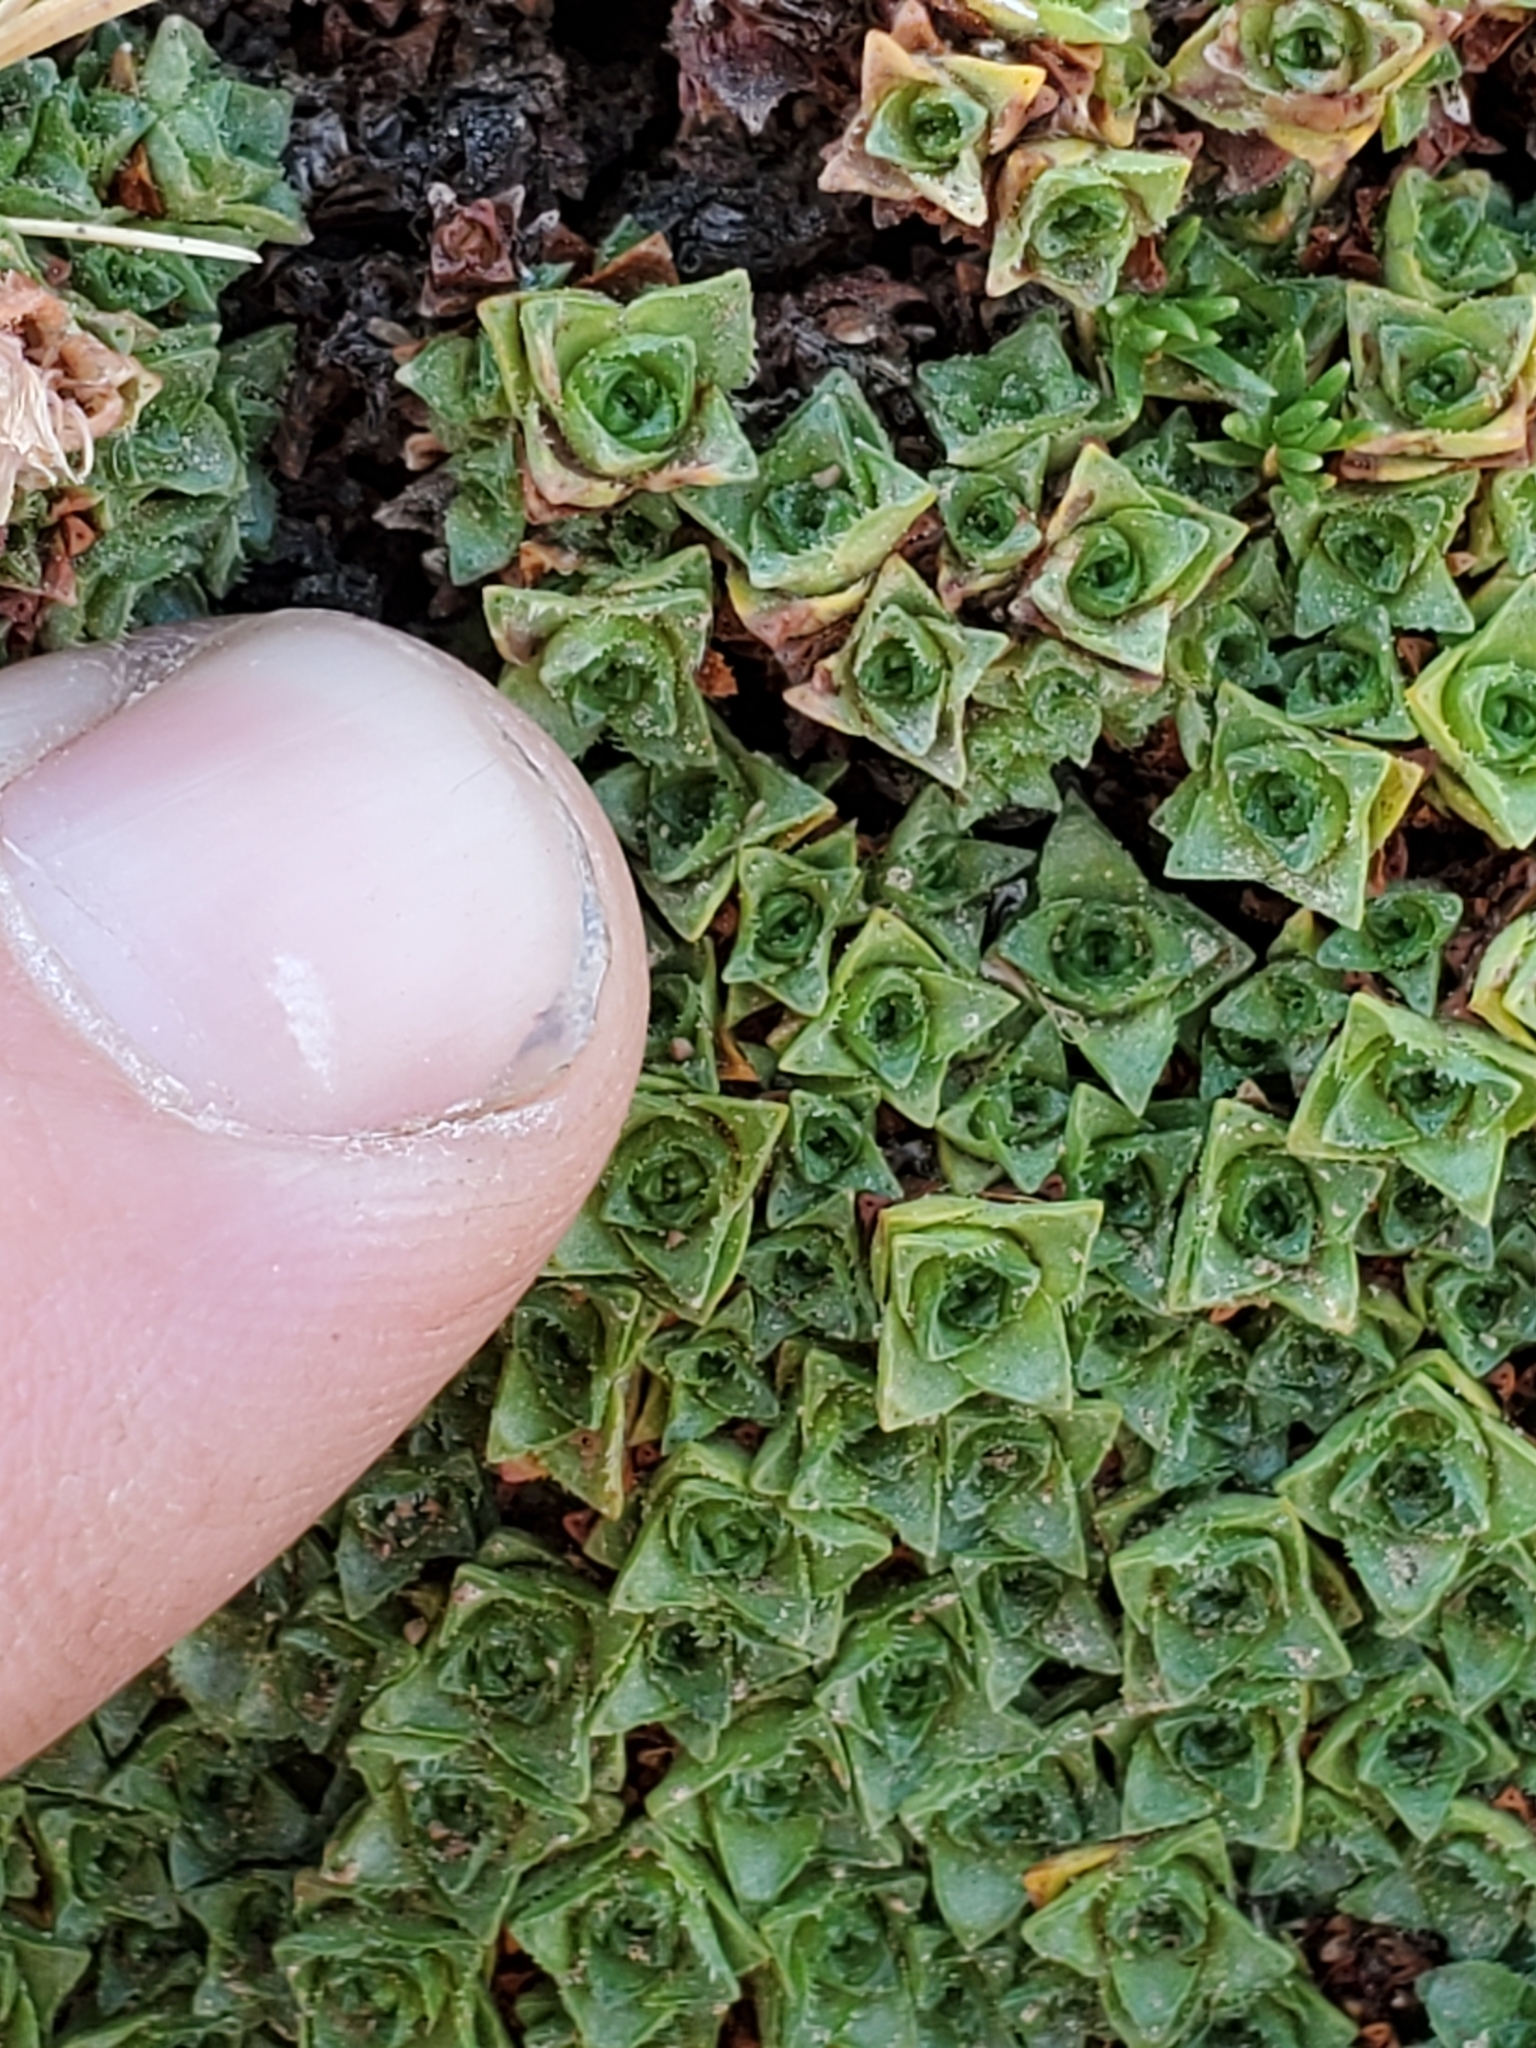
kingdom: Plantae
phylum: Tracheophyta
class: Magnoliopsida
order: Saxifragales
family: Saxifragaceae
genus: Saxifraga
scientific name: Saxifraga oppositifolia
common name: Purple saxifrage
